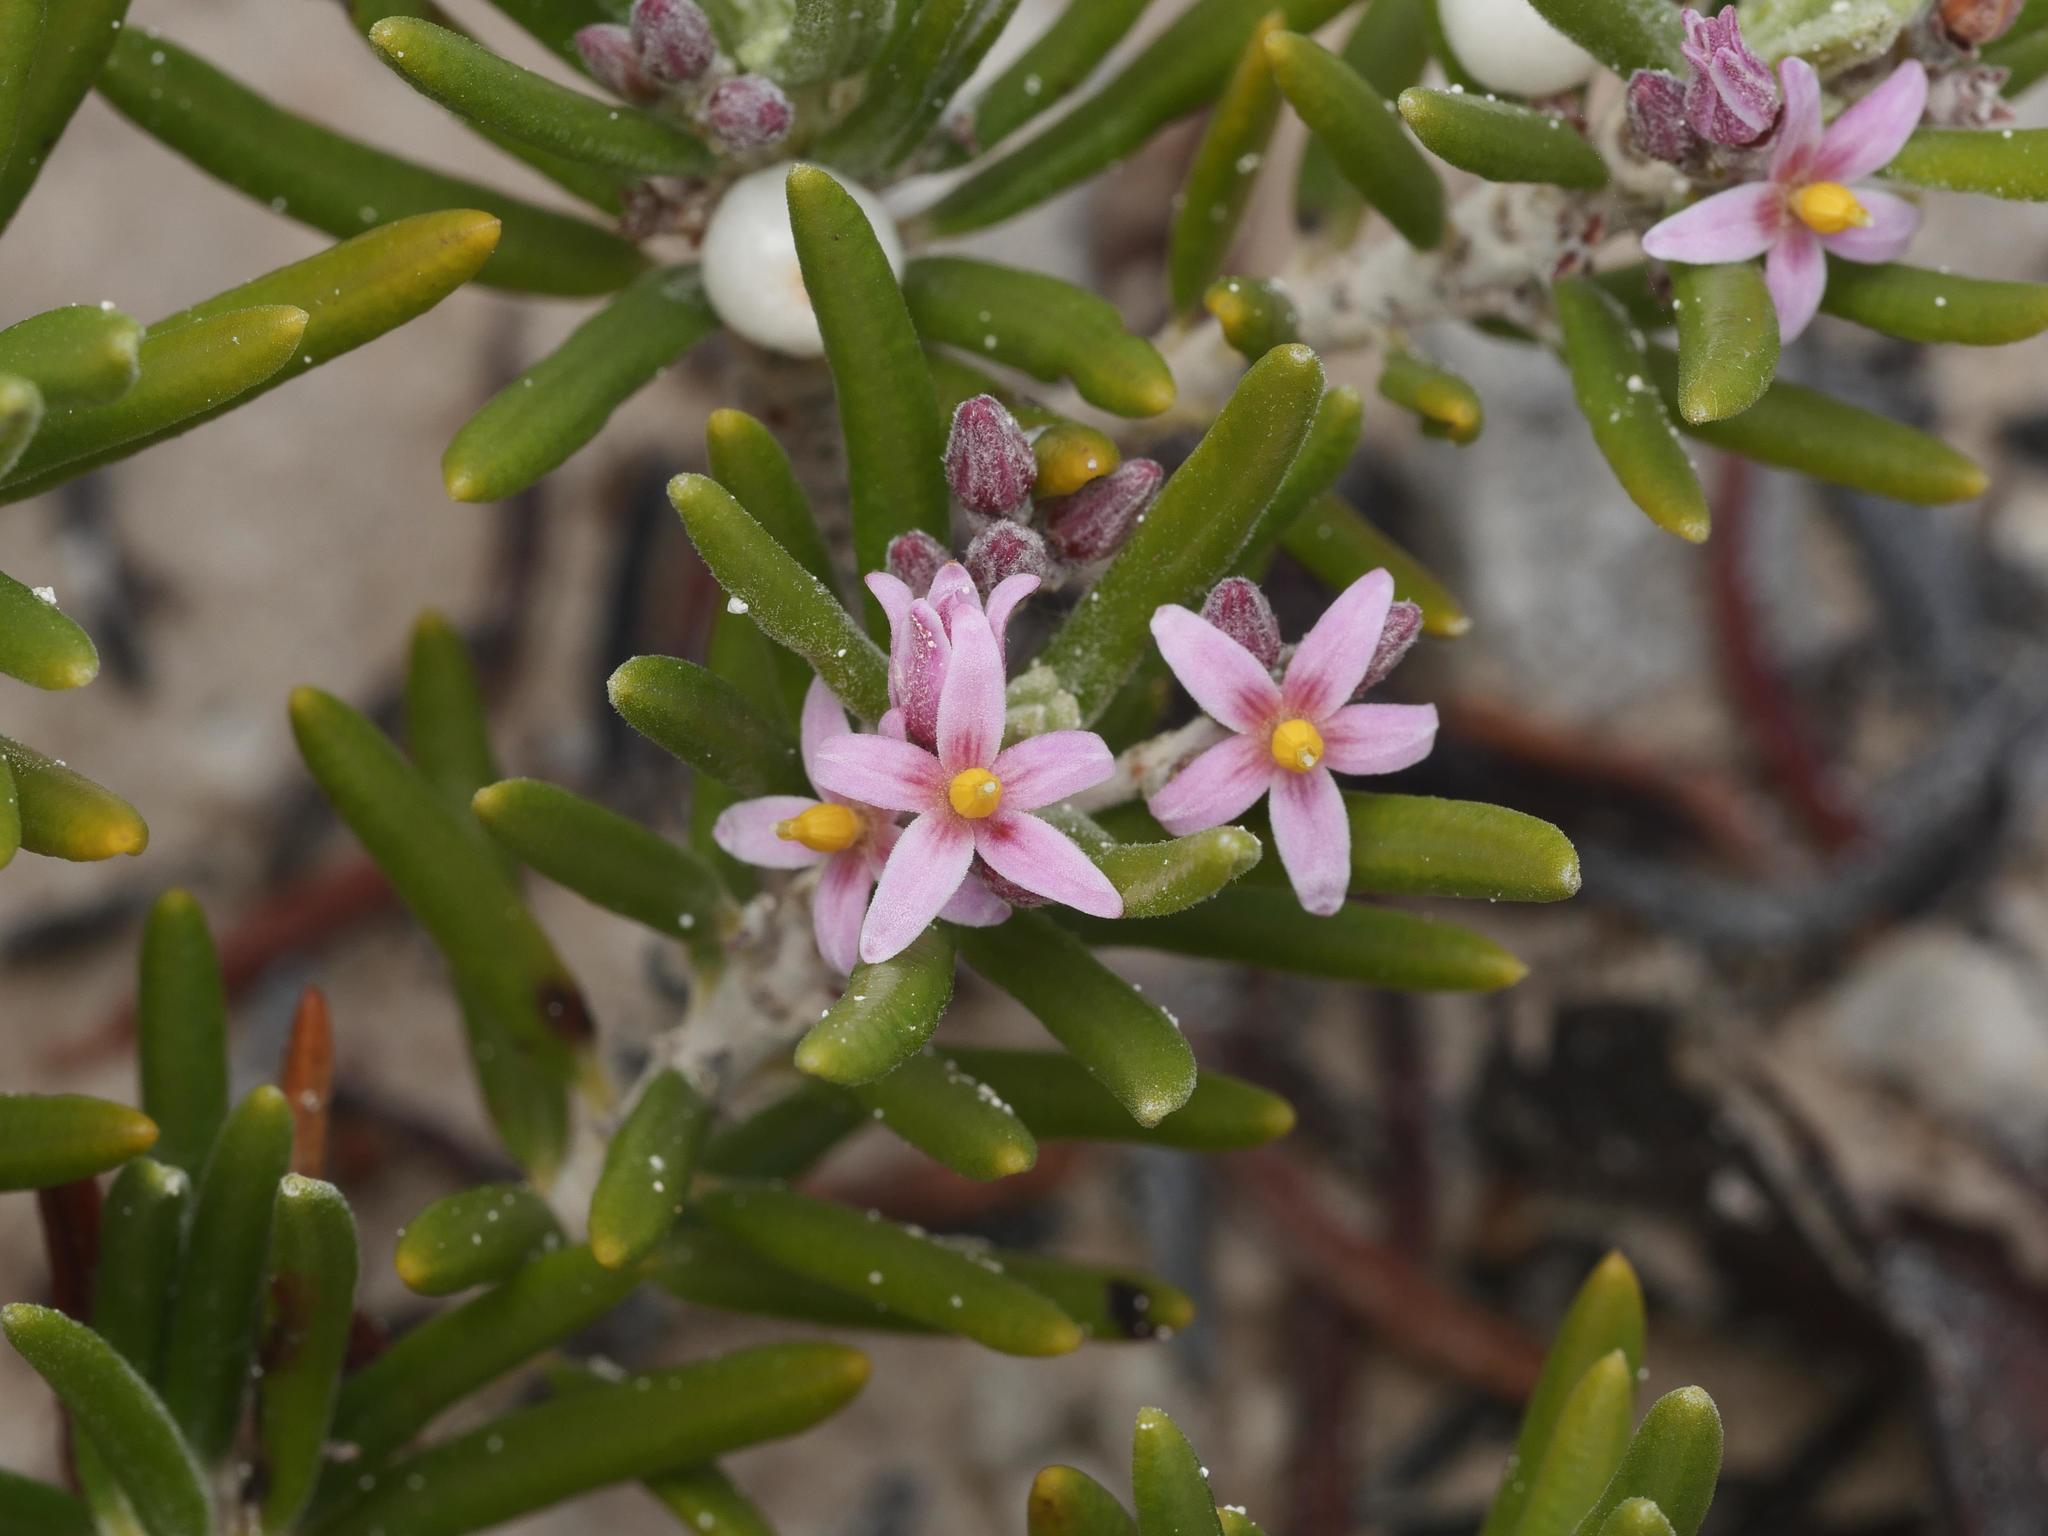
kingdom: Plantae
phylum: Tracheophyta
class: Magnoliopsida
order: Gentianales
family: Rubiaceae
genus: Strumpfia
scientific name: Strumpfia maritima
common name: Pride-of-big pine
